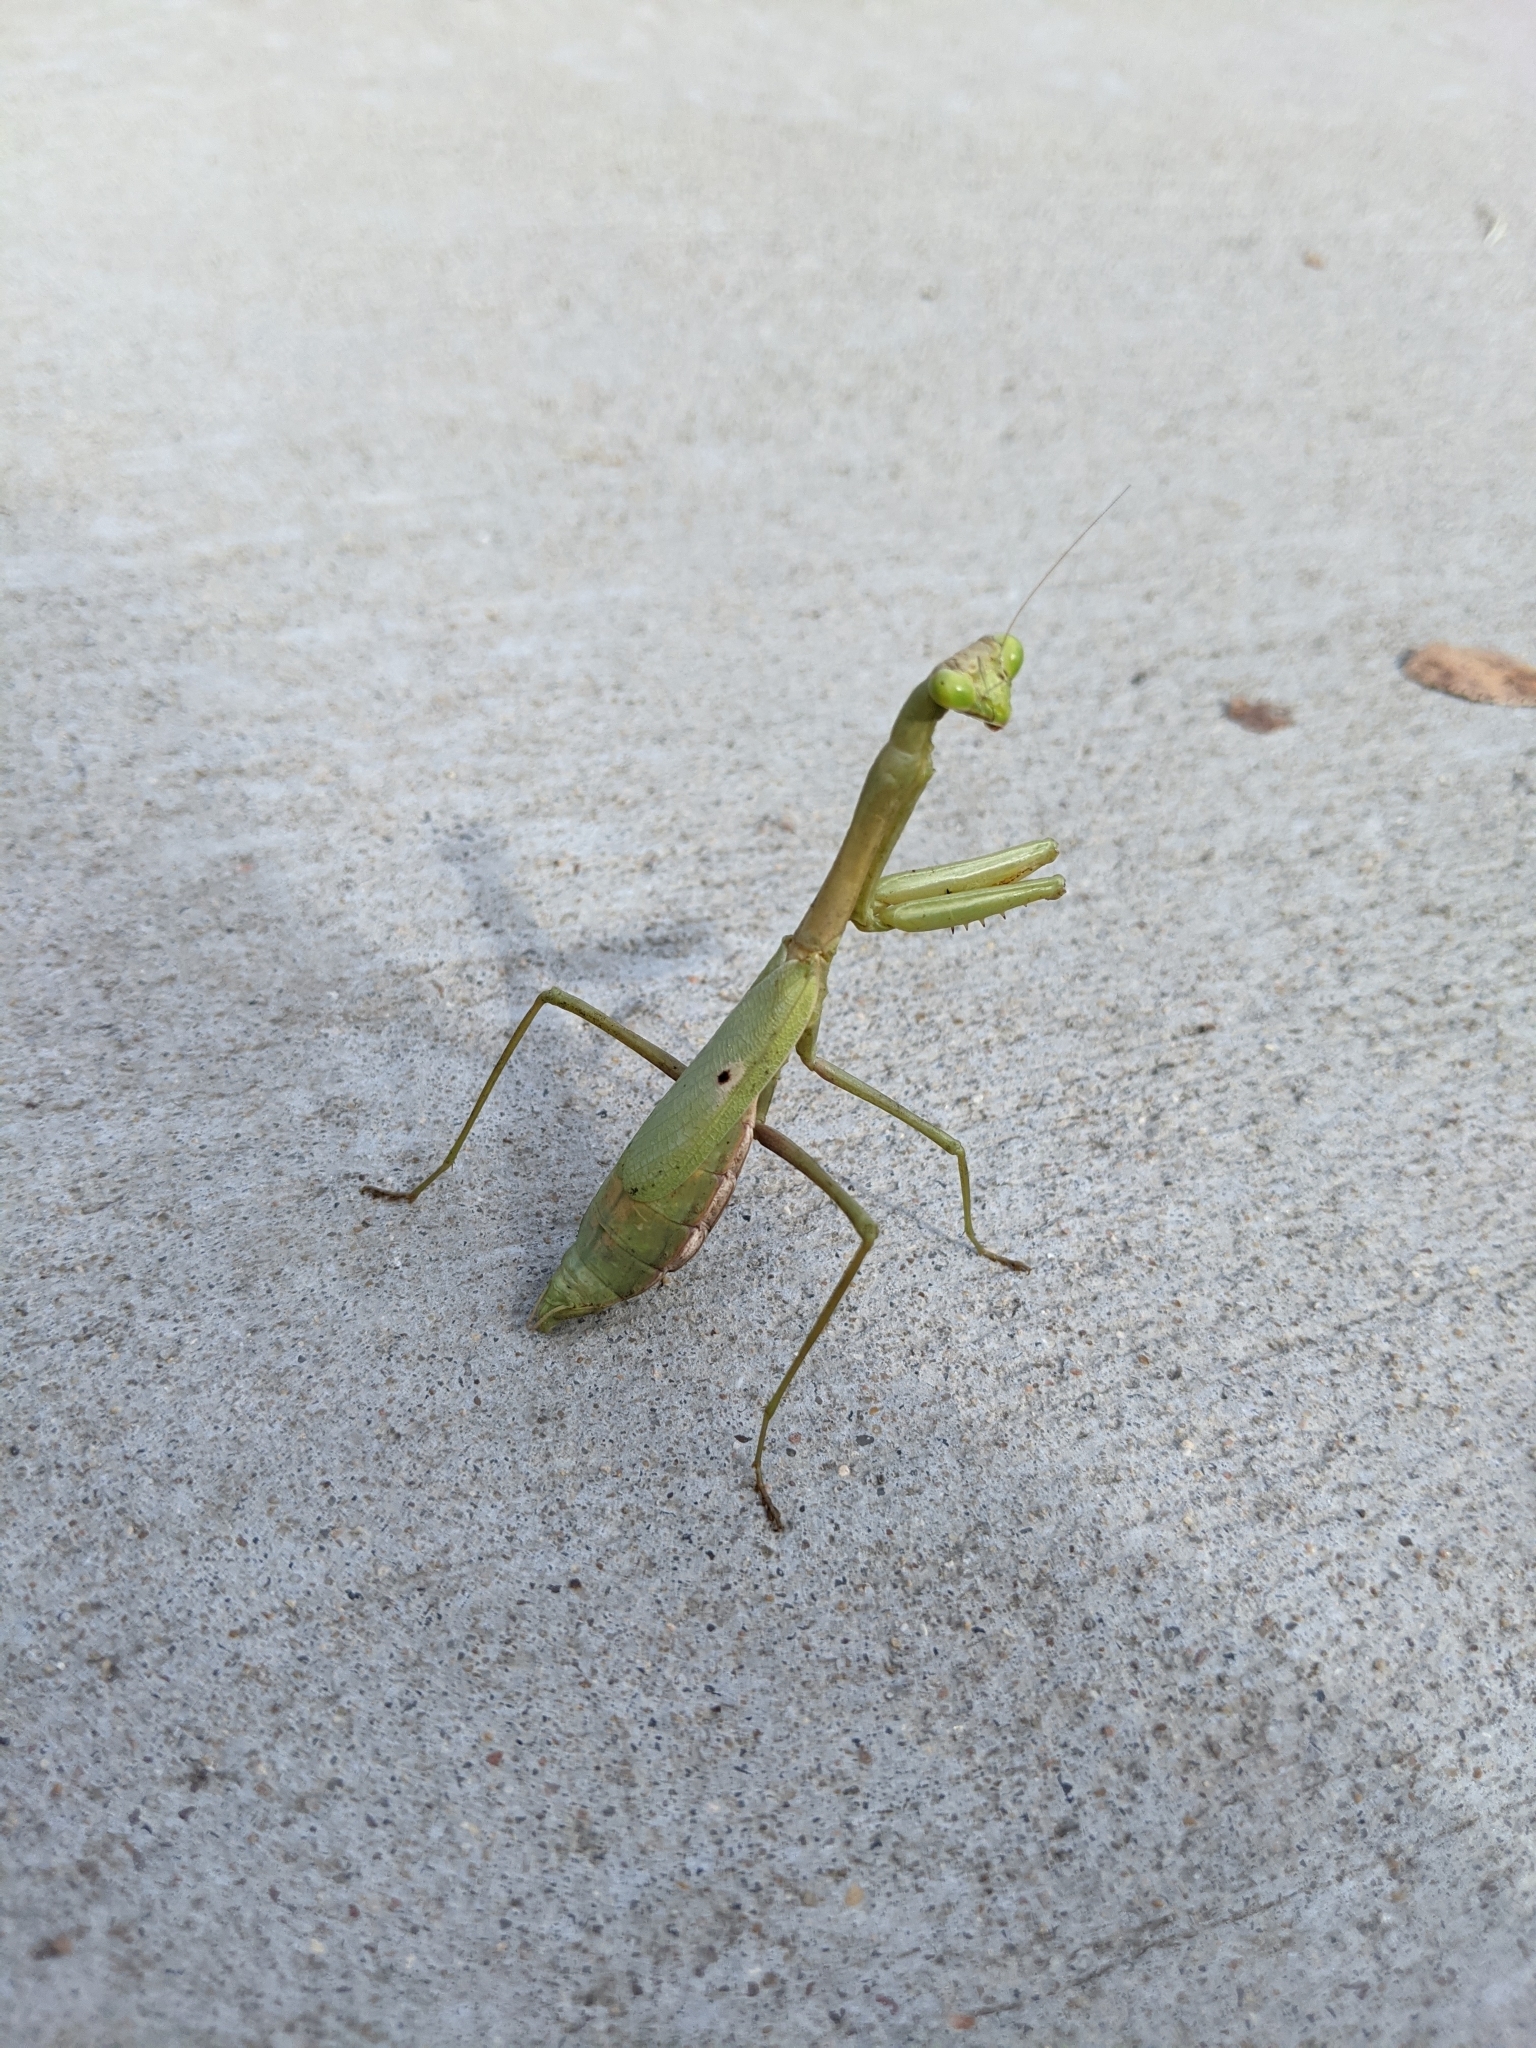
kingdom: Animalia
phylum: Arthropoda
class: Insecta
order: Mantodea
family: Mantidae
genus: Stagmomantis
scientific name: Stagmomantis carolina
